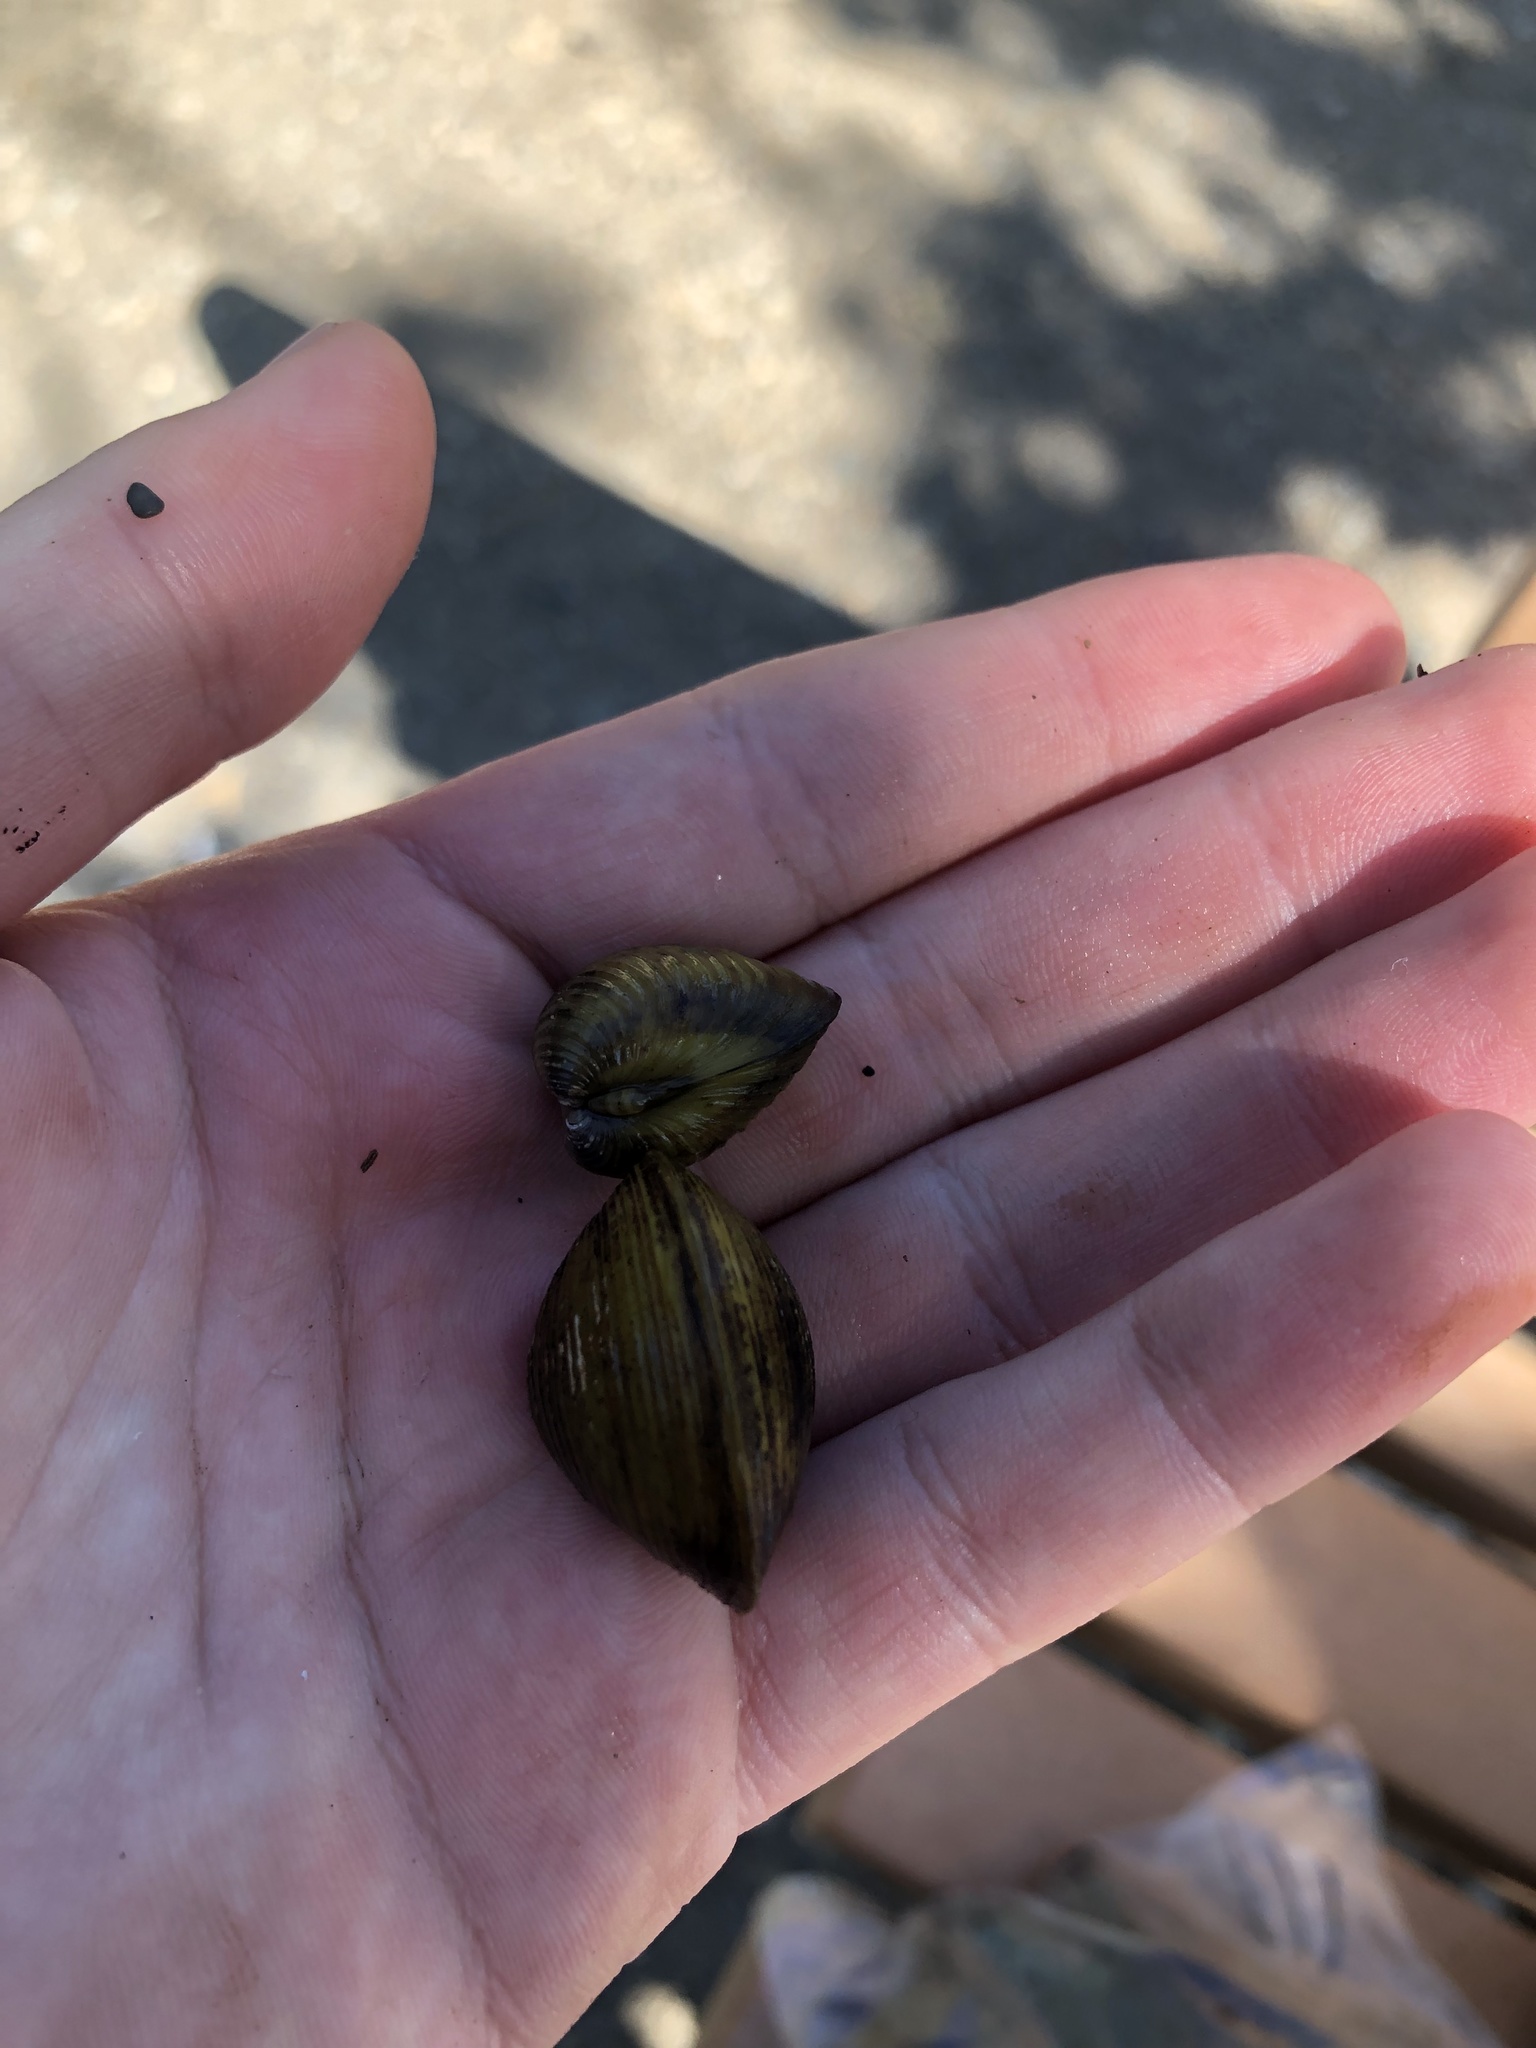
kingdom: Animalia
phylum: Mollusca
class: Bivalvia
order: Venerida
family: Cyrenidae
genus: Corbicula
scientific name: Corbicula fluminea
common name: Asian clam
